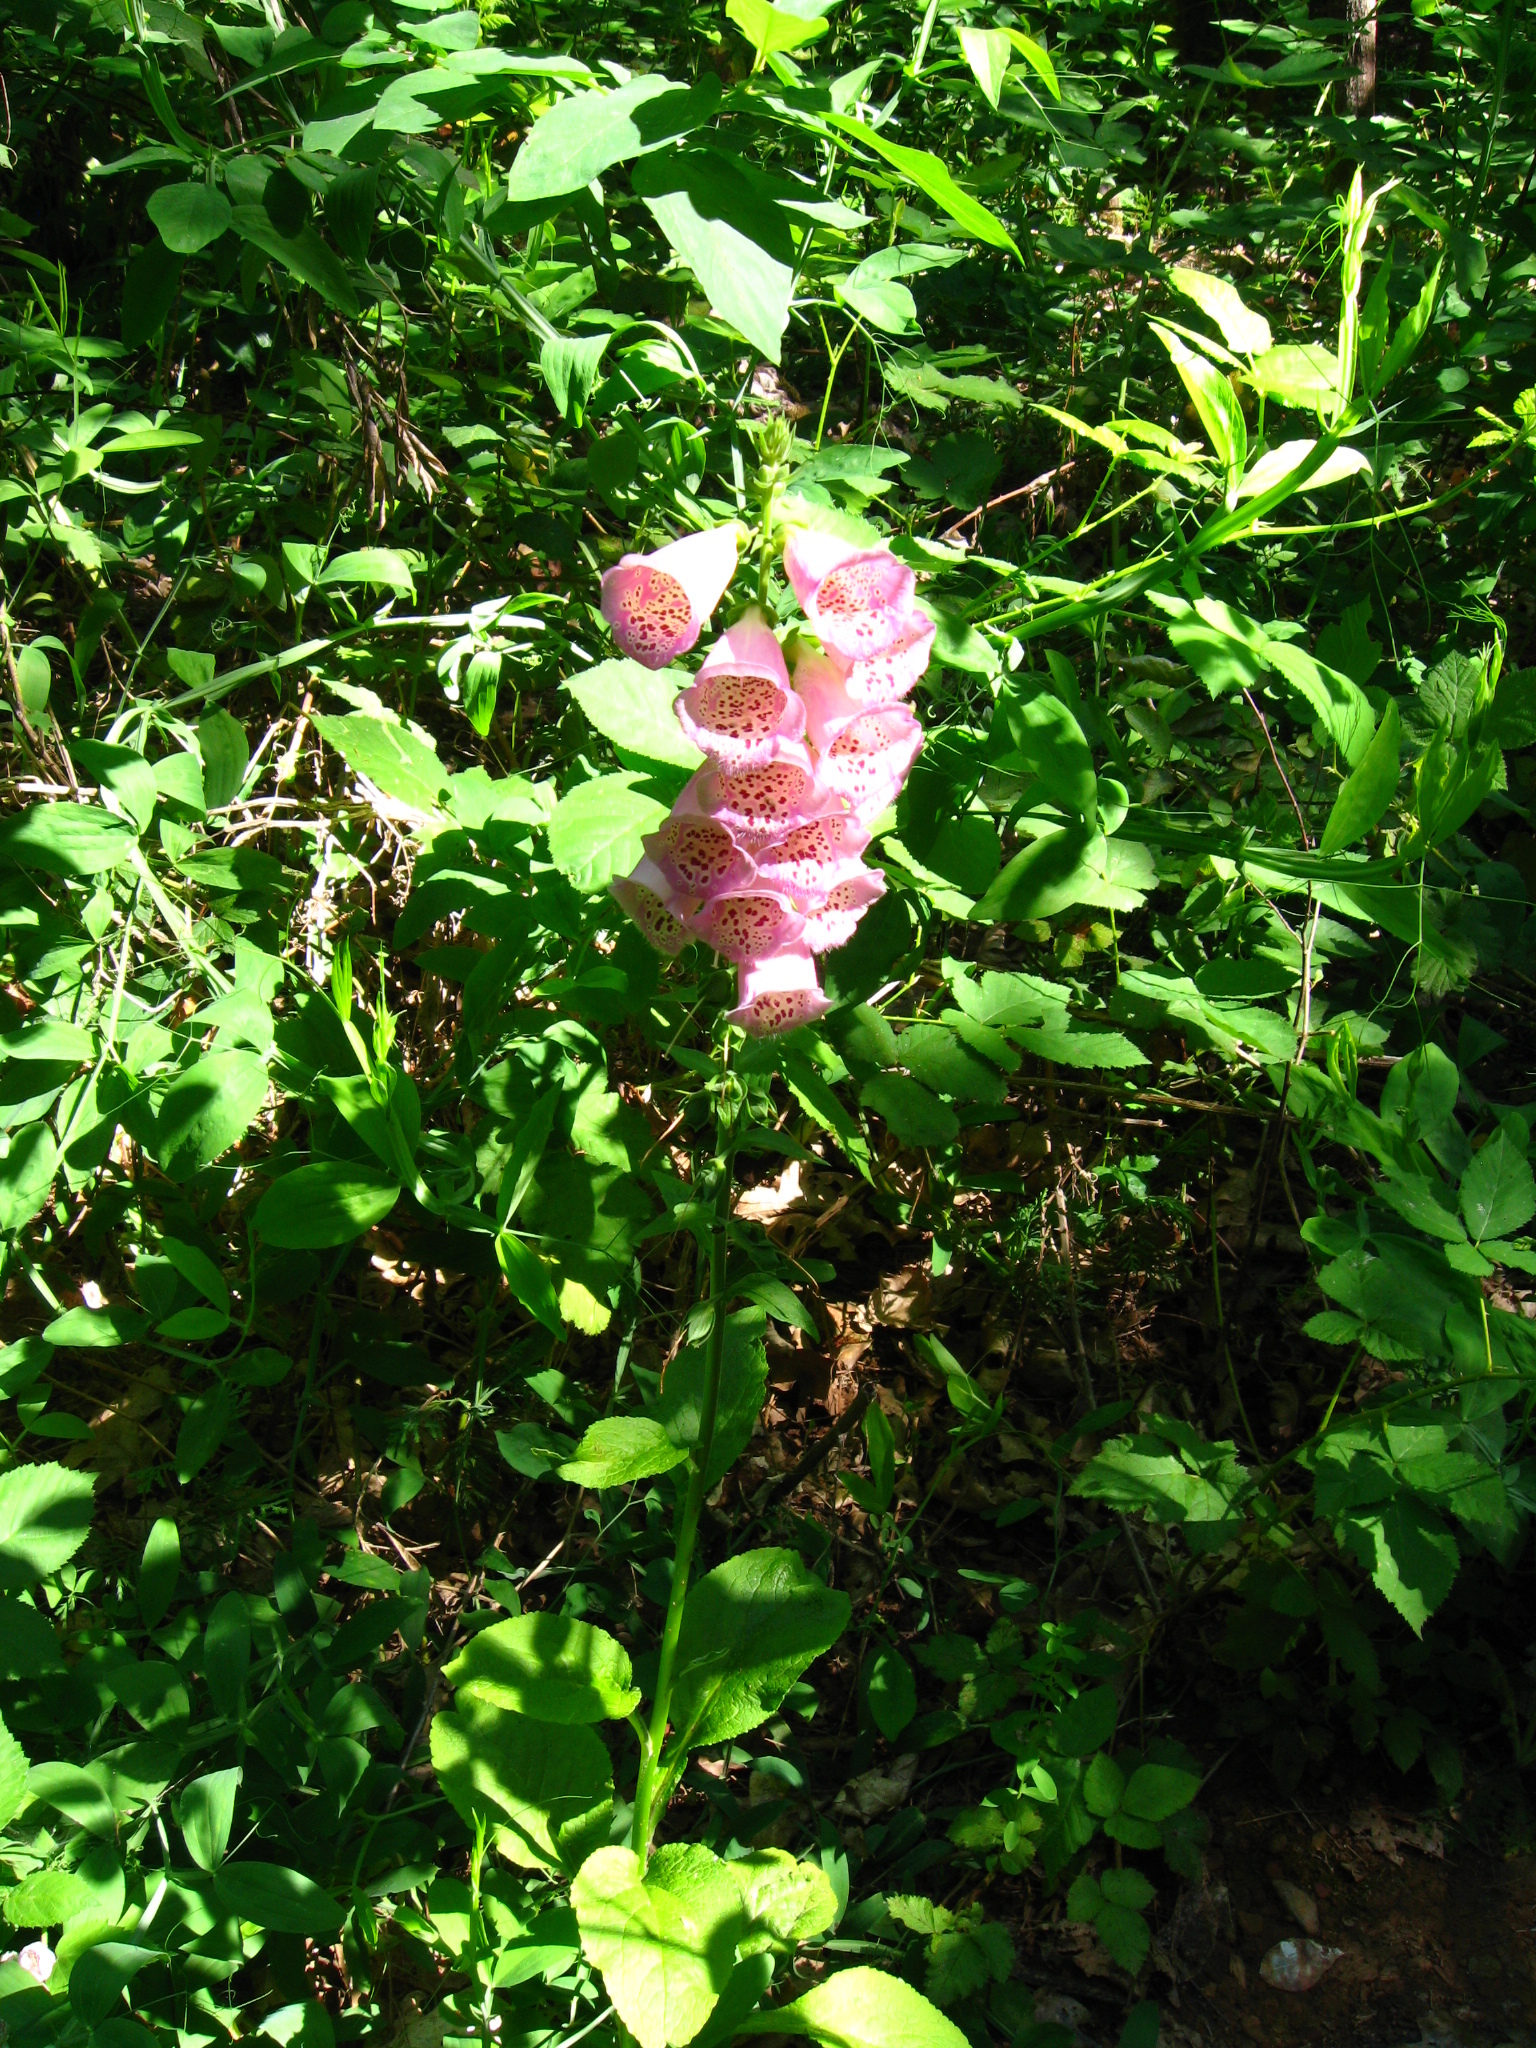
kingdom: Plantae
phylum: Tracheophyta
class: Magnoliopsida
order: Lamiales
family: Plantaginaceae
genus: Digitalis
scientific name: Digitalis purpurea
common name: Foxglove
